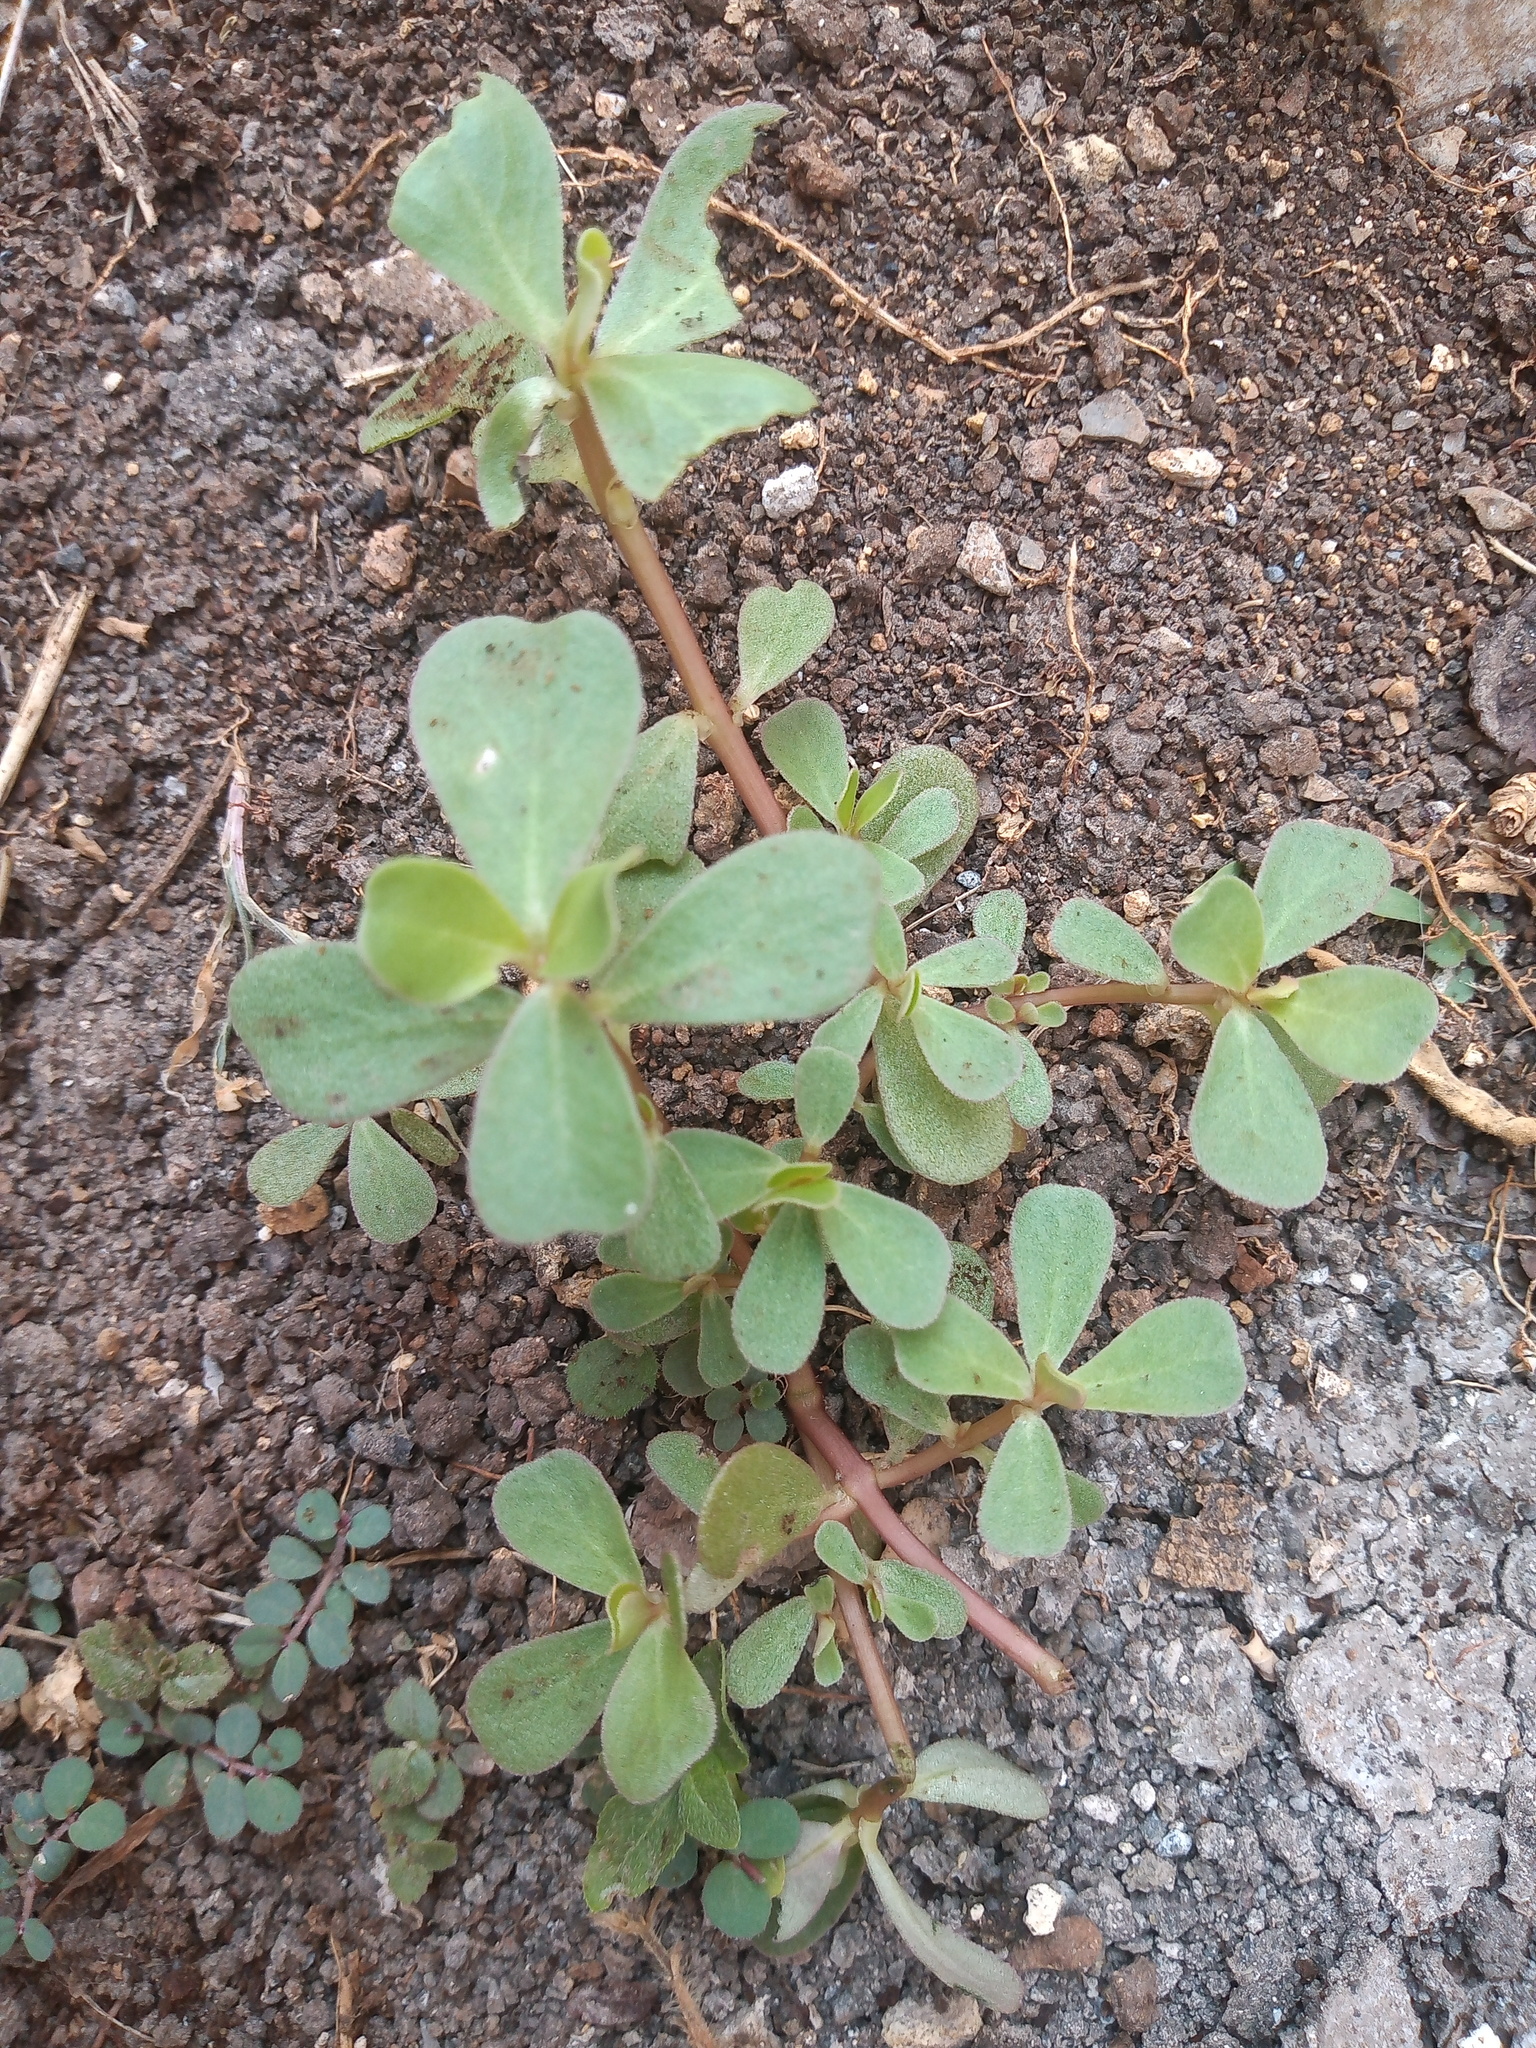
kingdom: Plantae
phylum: Tracheophyta
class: Magnoliopsida
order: Caryophyllales
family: Portulacaceae
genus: Portulaca
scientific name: Portulaca oleracea
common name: Common purslane
